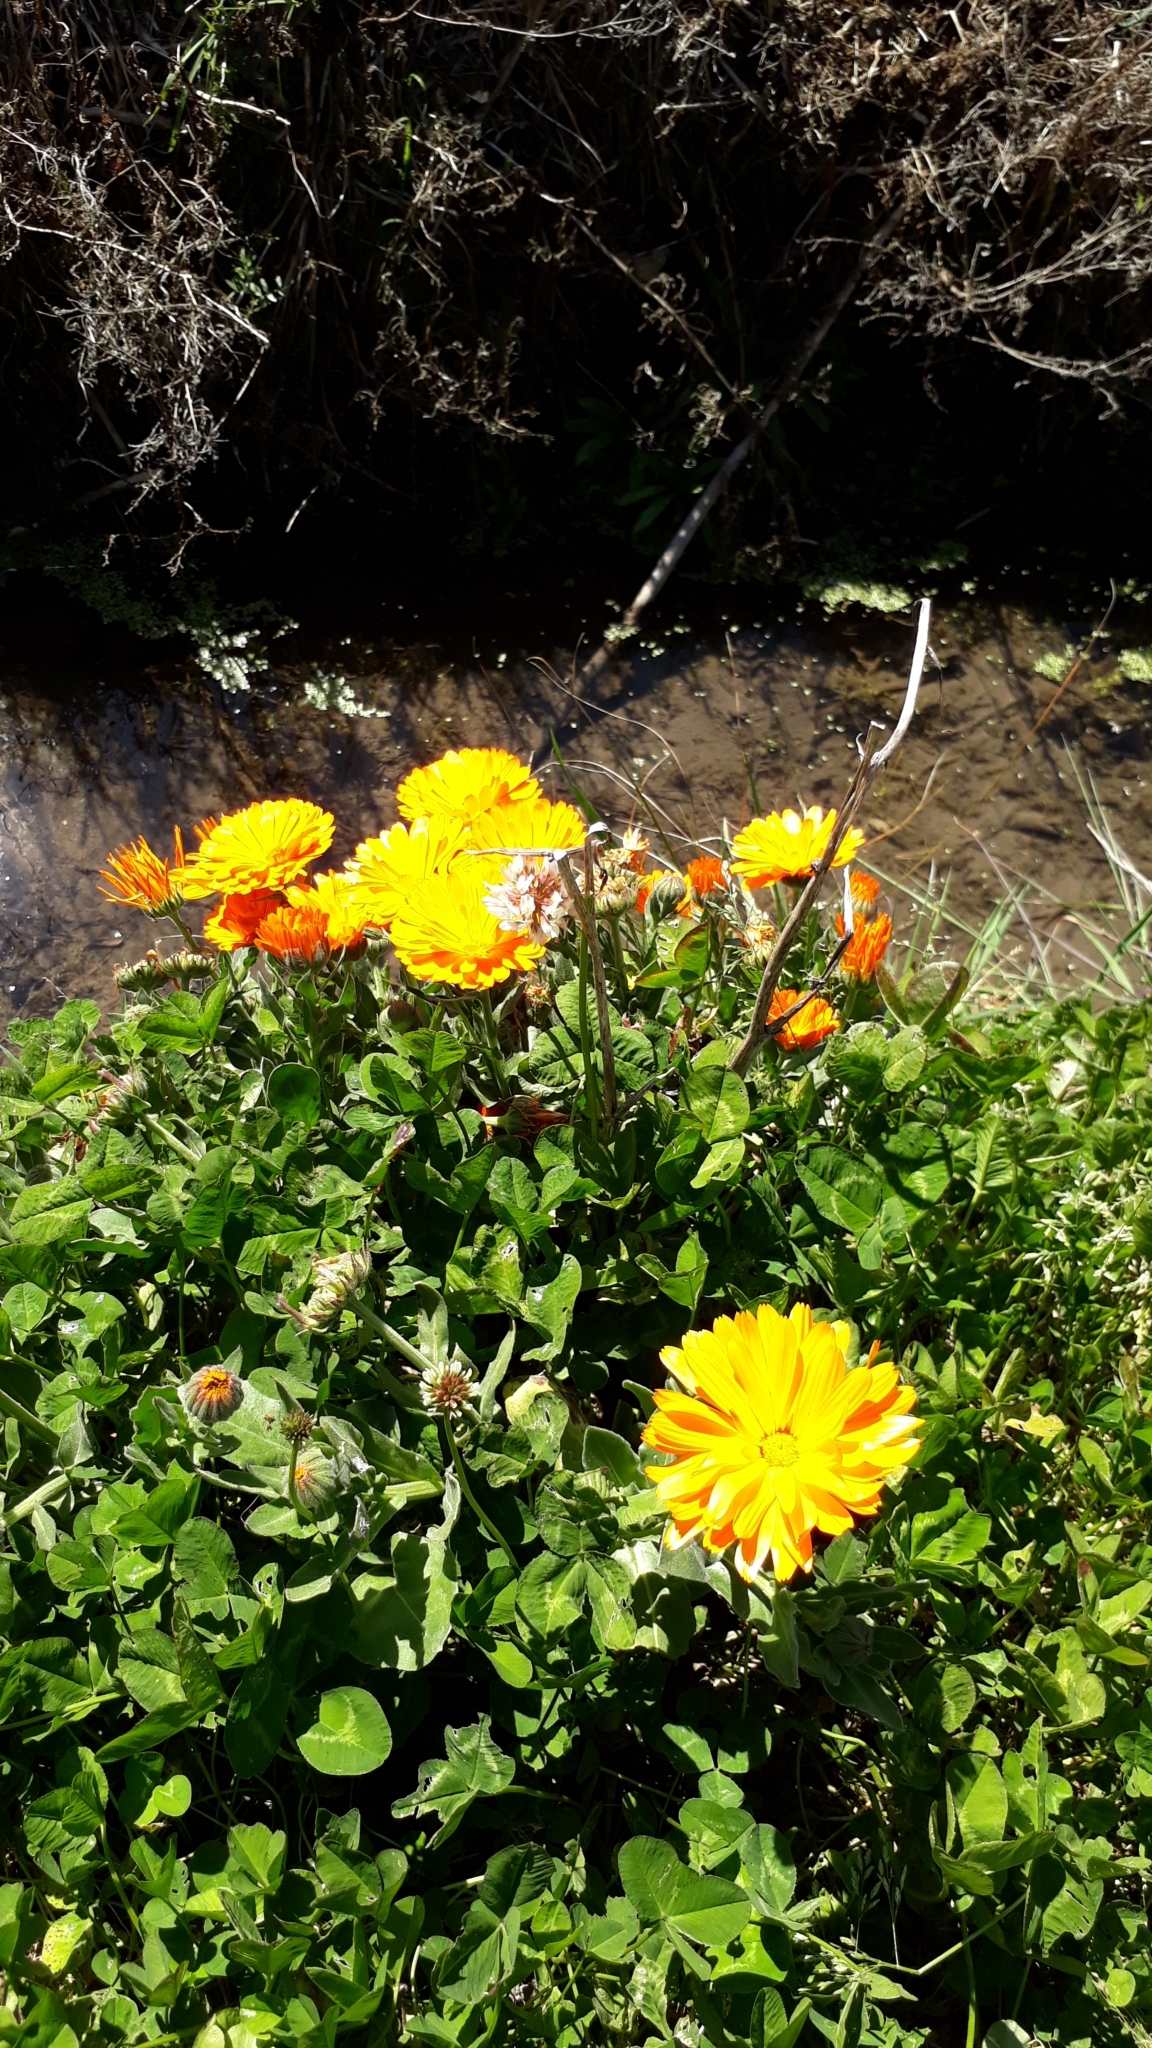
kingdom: Plantae
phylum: Tracheophyta
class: Magnoliopsida
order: Asterales
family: Asteraceae
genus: Calendula
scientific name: Calendula officinalis
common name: Pot marigold
